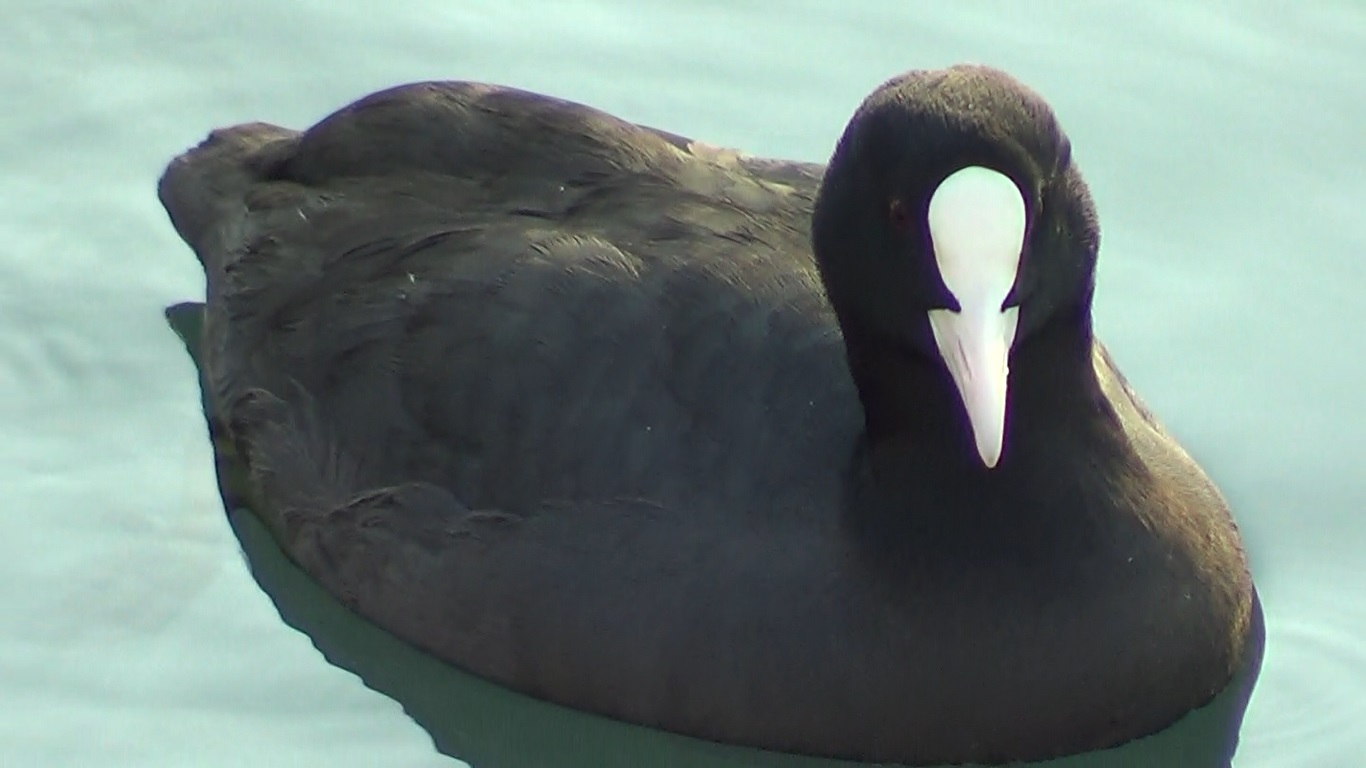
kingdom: Animalia
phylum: Chordata
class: Aves
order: Gruiformes
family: Rallidae
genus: Fulica
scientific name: Fulica atra
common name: Eurasian coot
